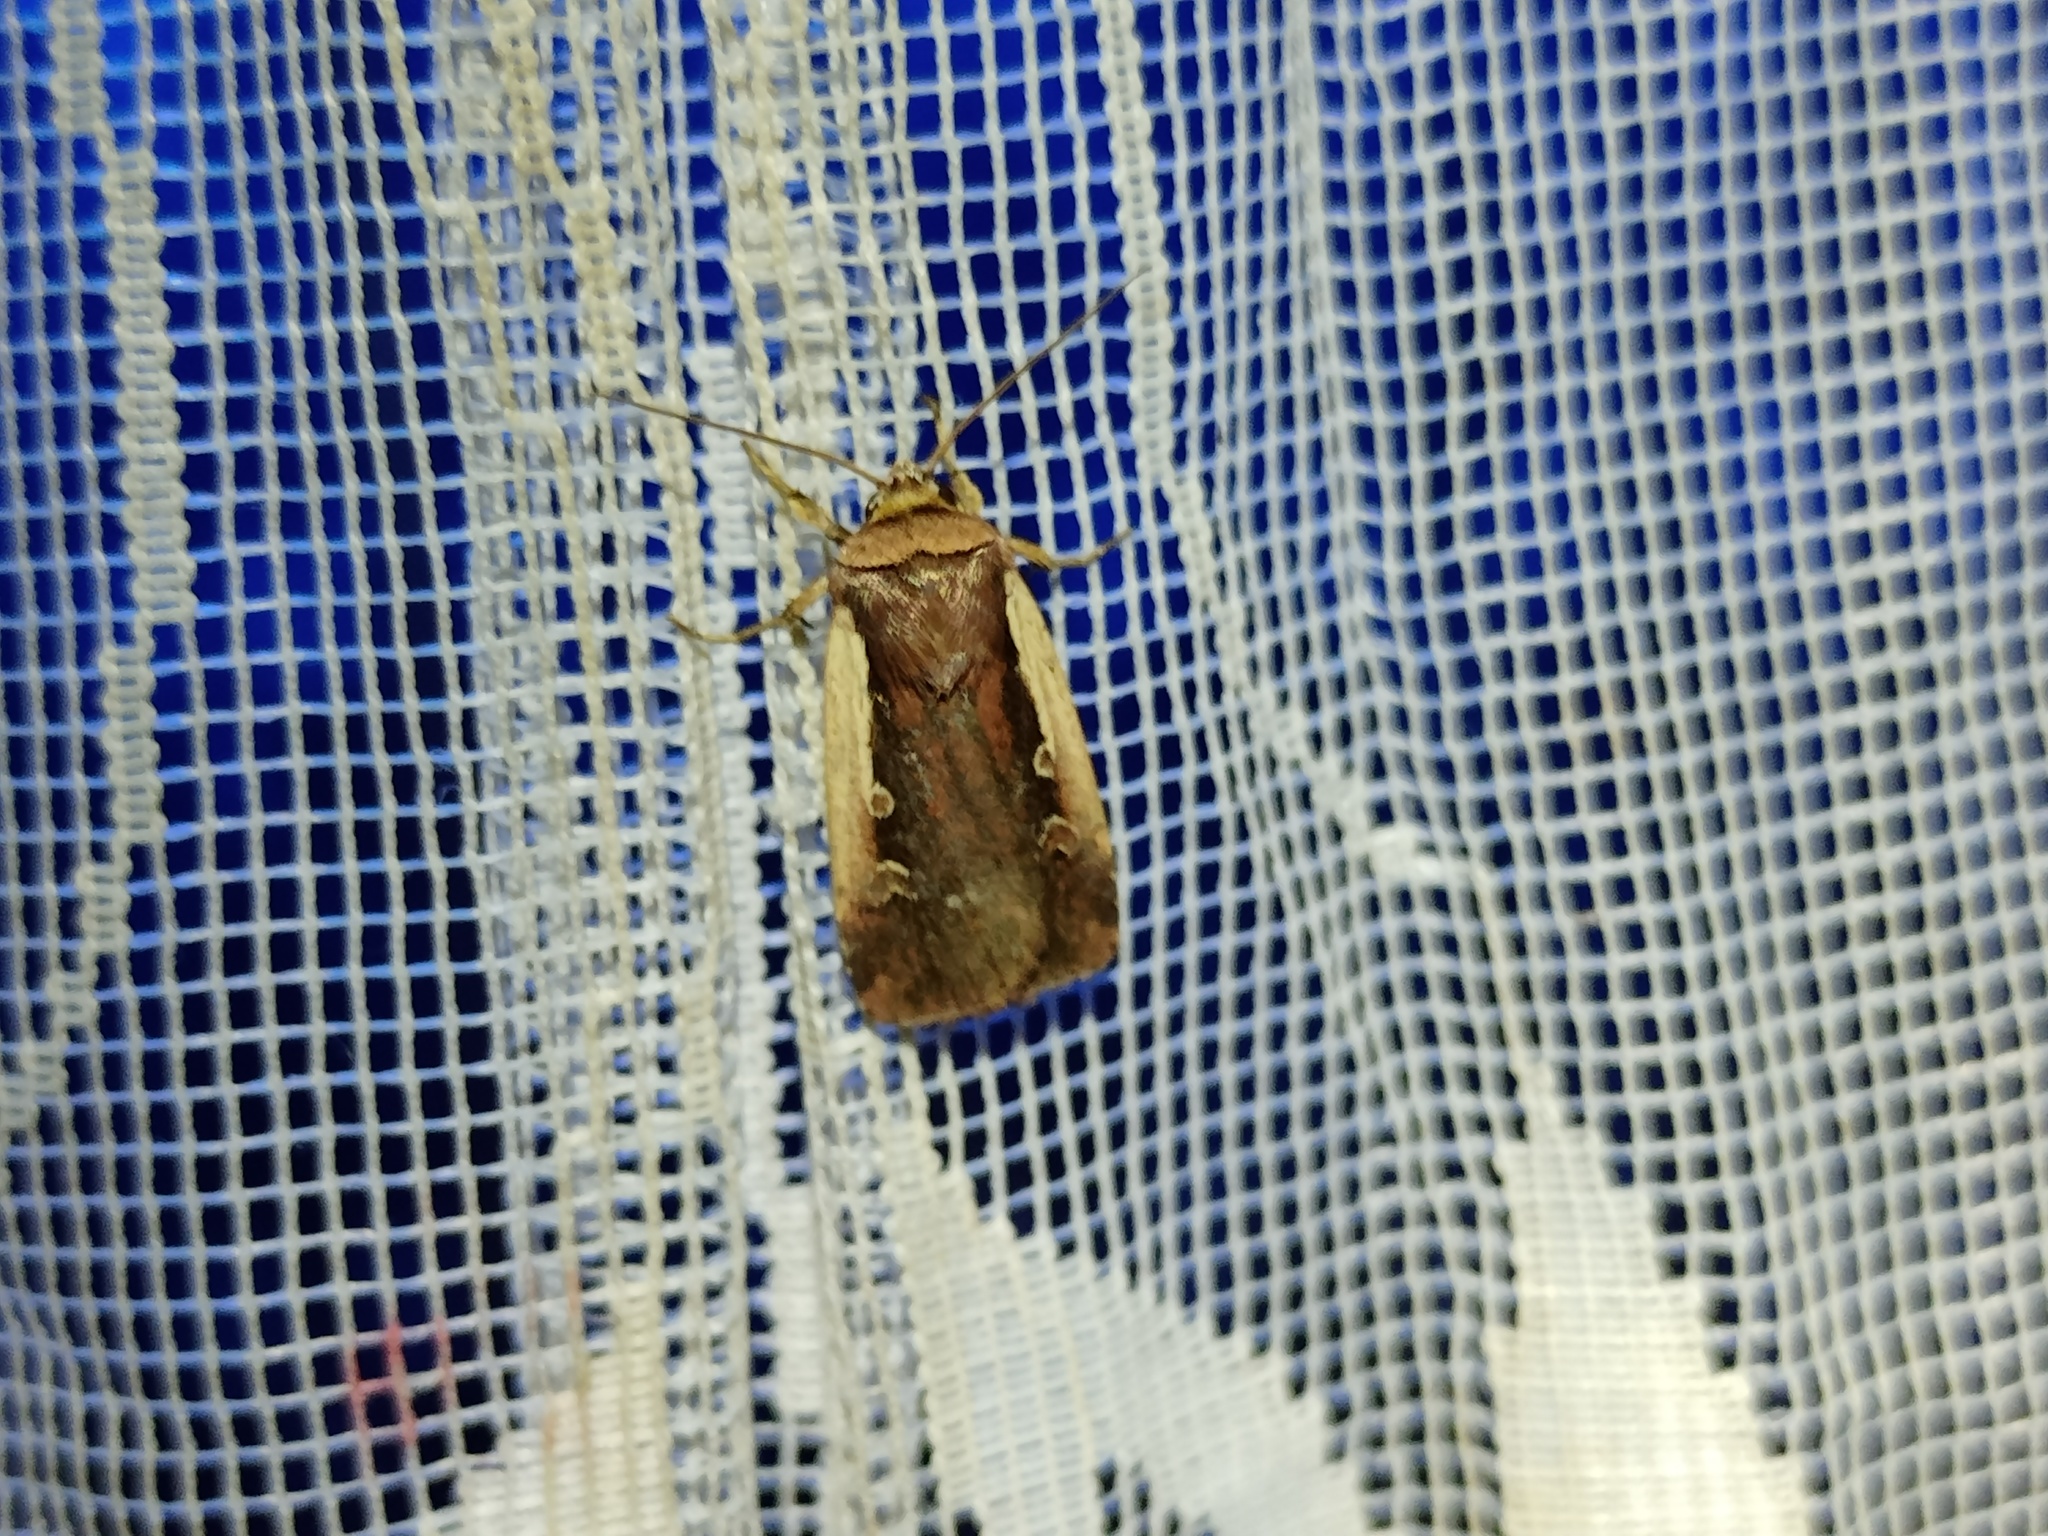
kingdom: Animalia
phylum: Arthropoda
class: Insecta
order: Lepidoptera
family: Noctuidae
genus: Ochropleura
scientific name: Ochropleura plecta
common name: Flame shoulder
